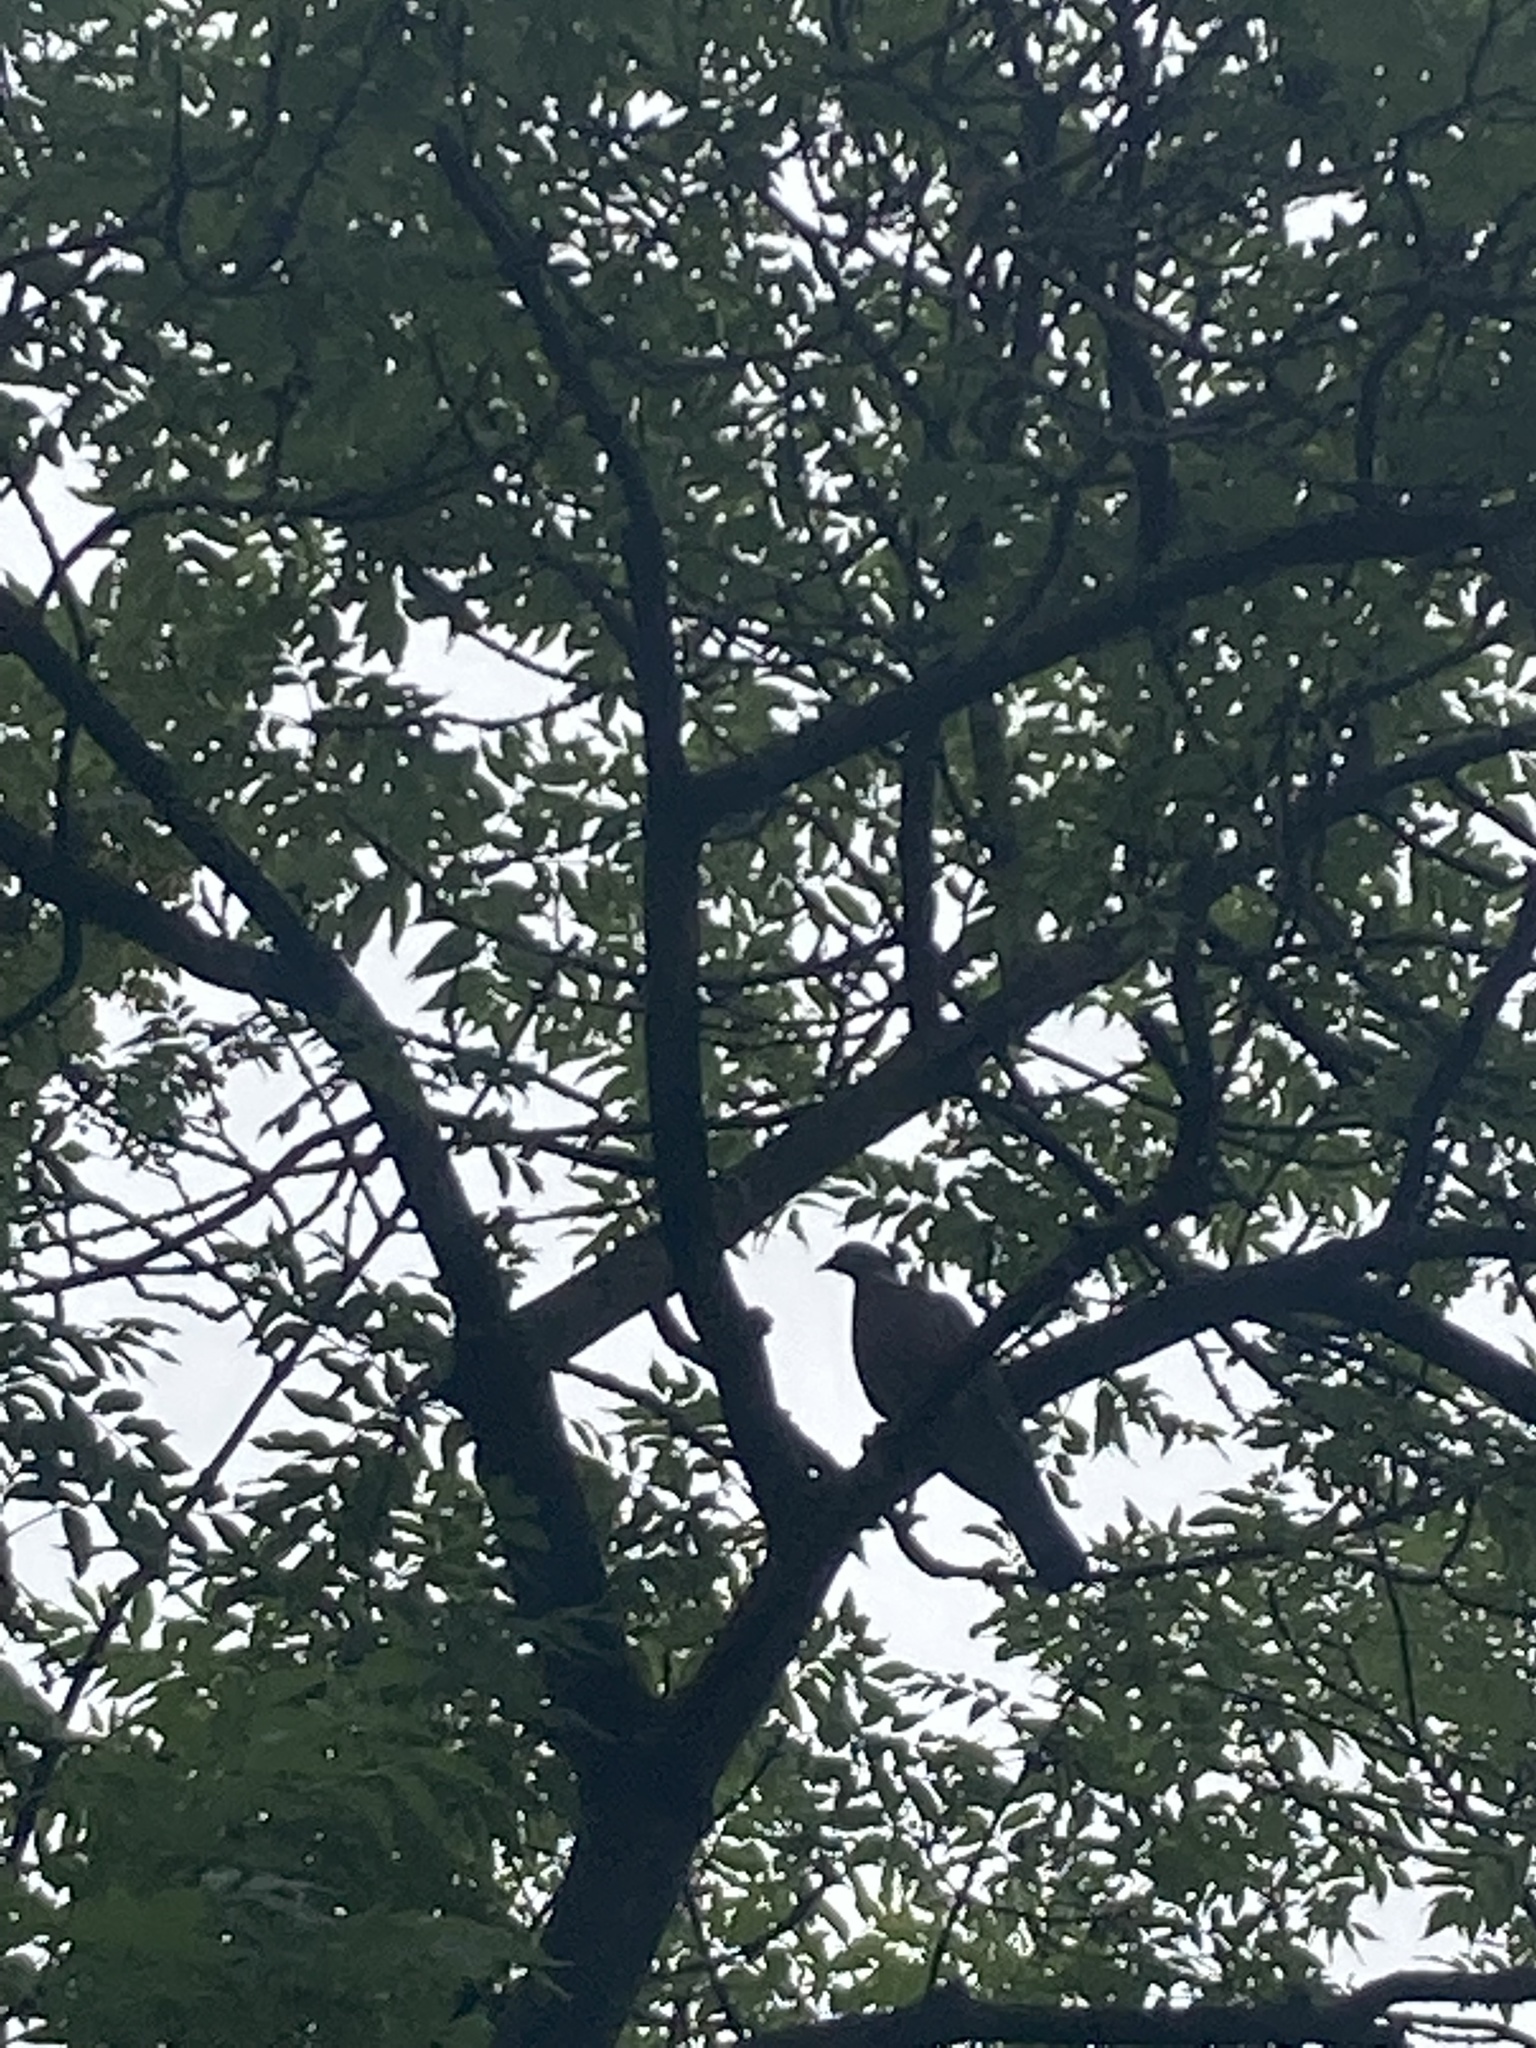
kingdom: Animalia
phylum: Chordata
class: Aves
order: Columbiformes
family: Columbidae
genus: Columba
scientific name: Columba palumbus
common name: Common wood pigeon
